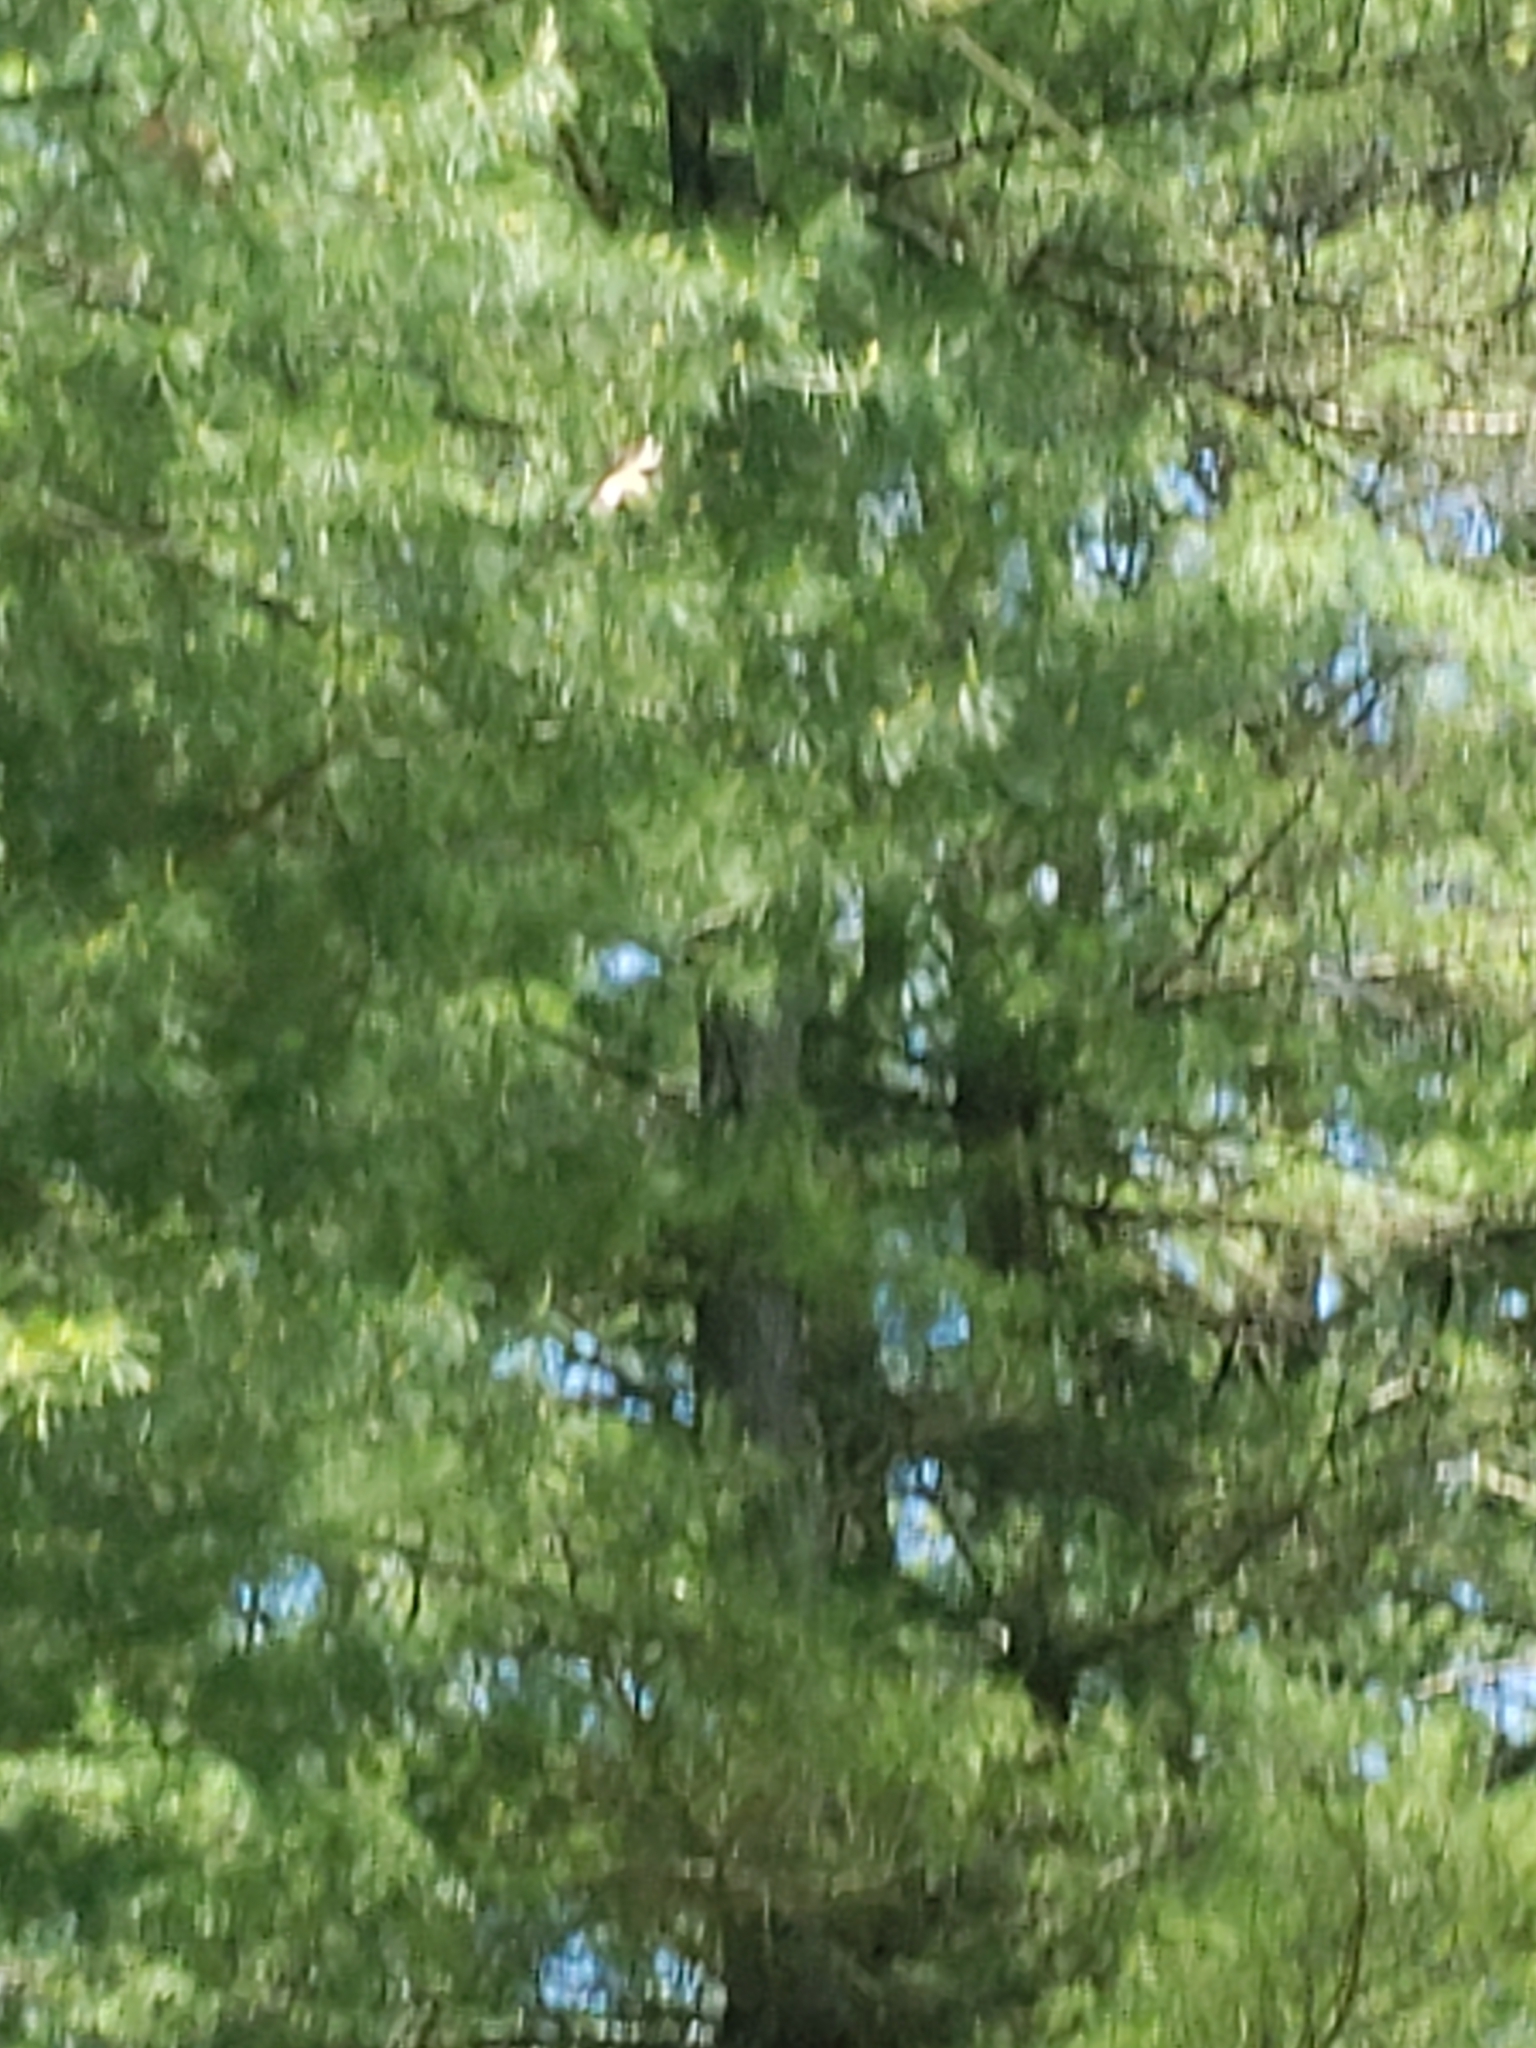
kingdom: Animalia
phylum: Chordata
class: Aves
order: Passeriformes
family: Tyrannidae
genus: Sayornis
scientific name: Sayornis phoebe
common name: Eastern phoebe
